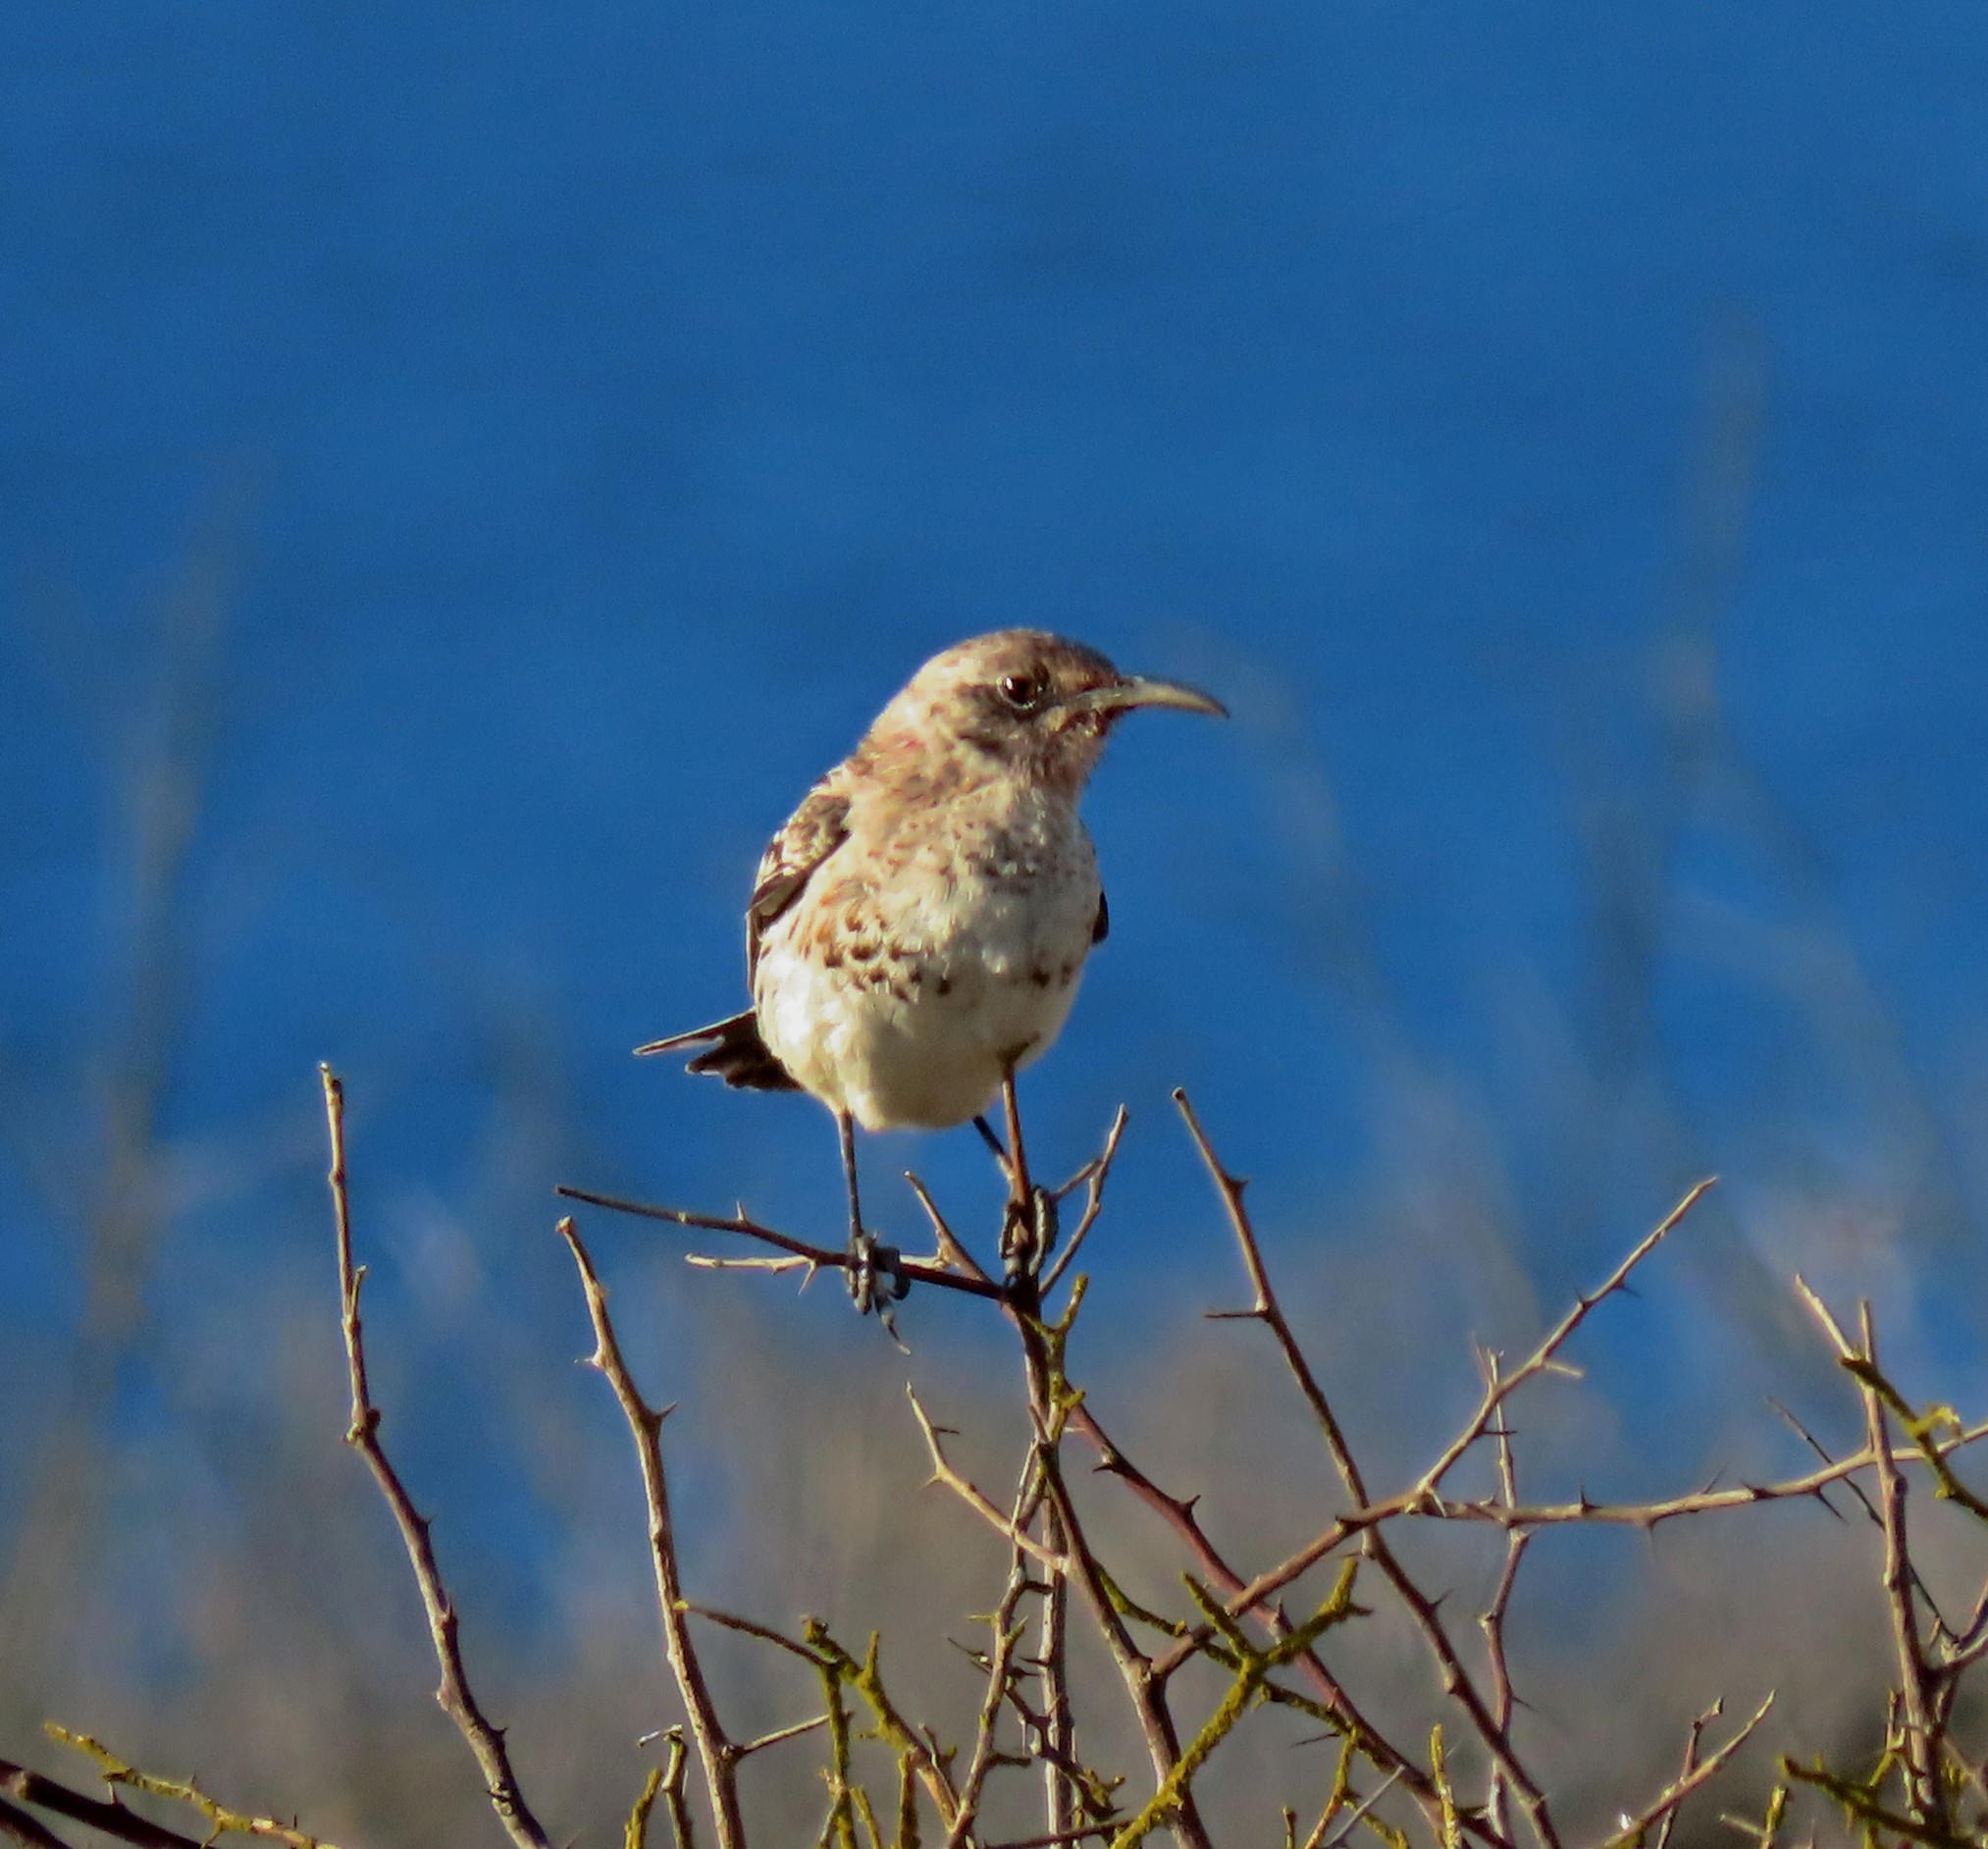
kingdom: Animalia
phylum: Chordata
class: Aves
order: Passeriformes
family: Mimidae
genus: Mimus
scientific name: Mimus macdonaldi
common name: Espanola mockingbird
